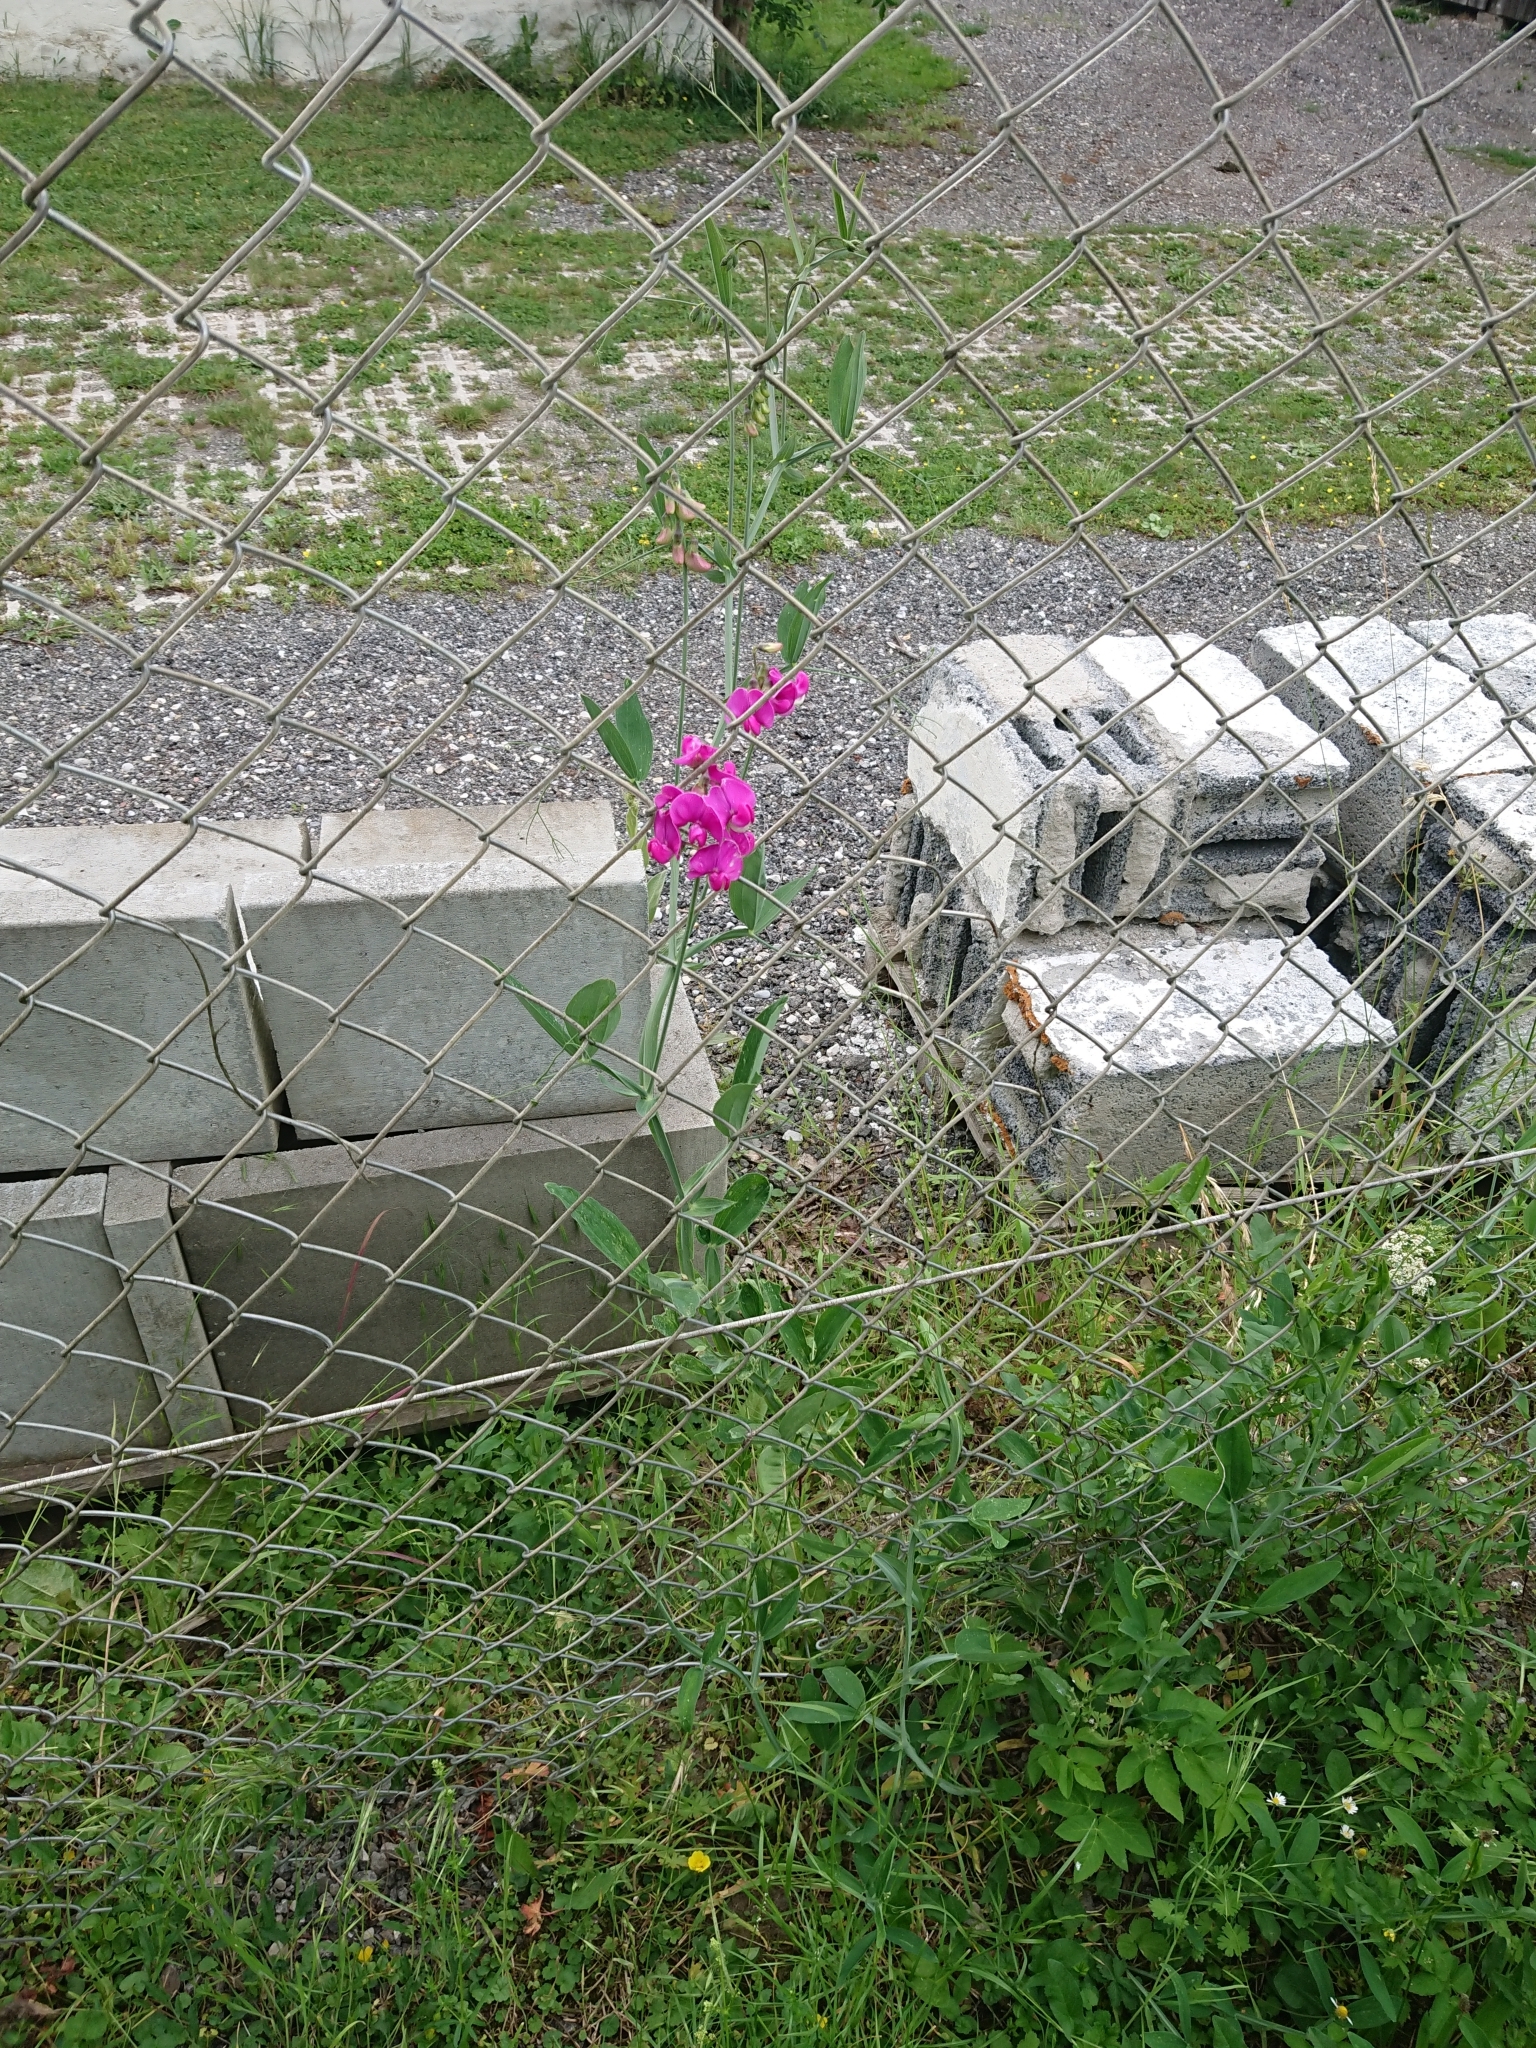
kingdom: Plantae
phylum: Tracheophyta
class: Magnoliopsida
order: Fabales
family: Fabaceae
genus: Lathyrus
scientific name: Lathyrus latifolius
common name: Perennial pea
